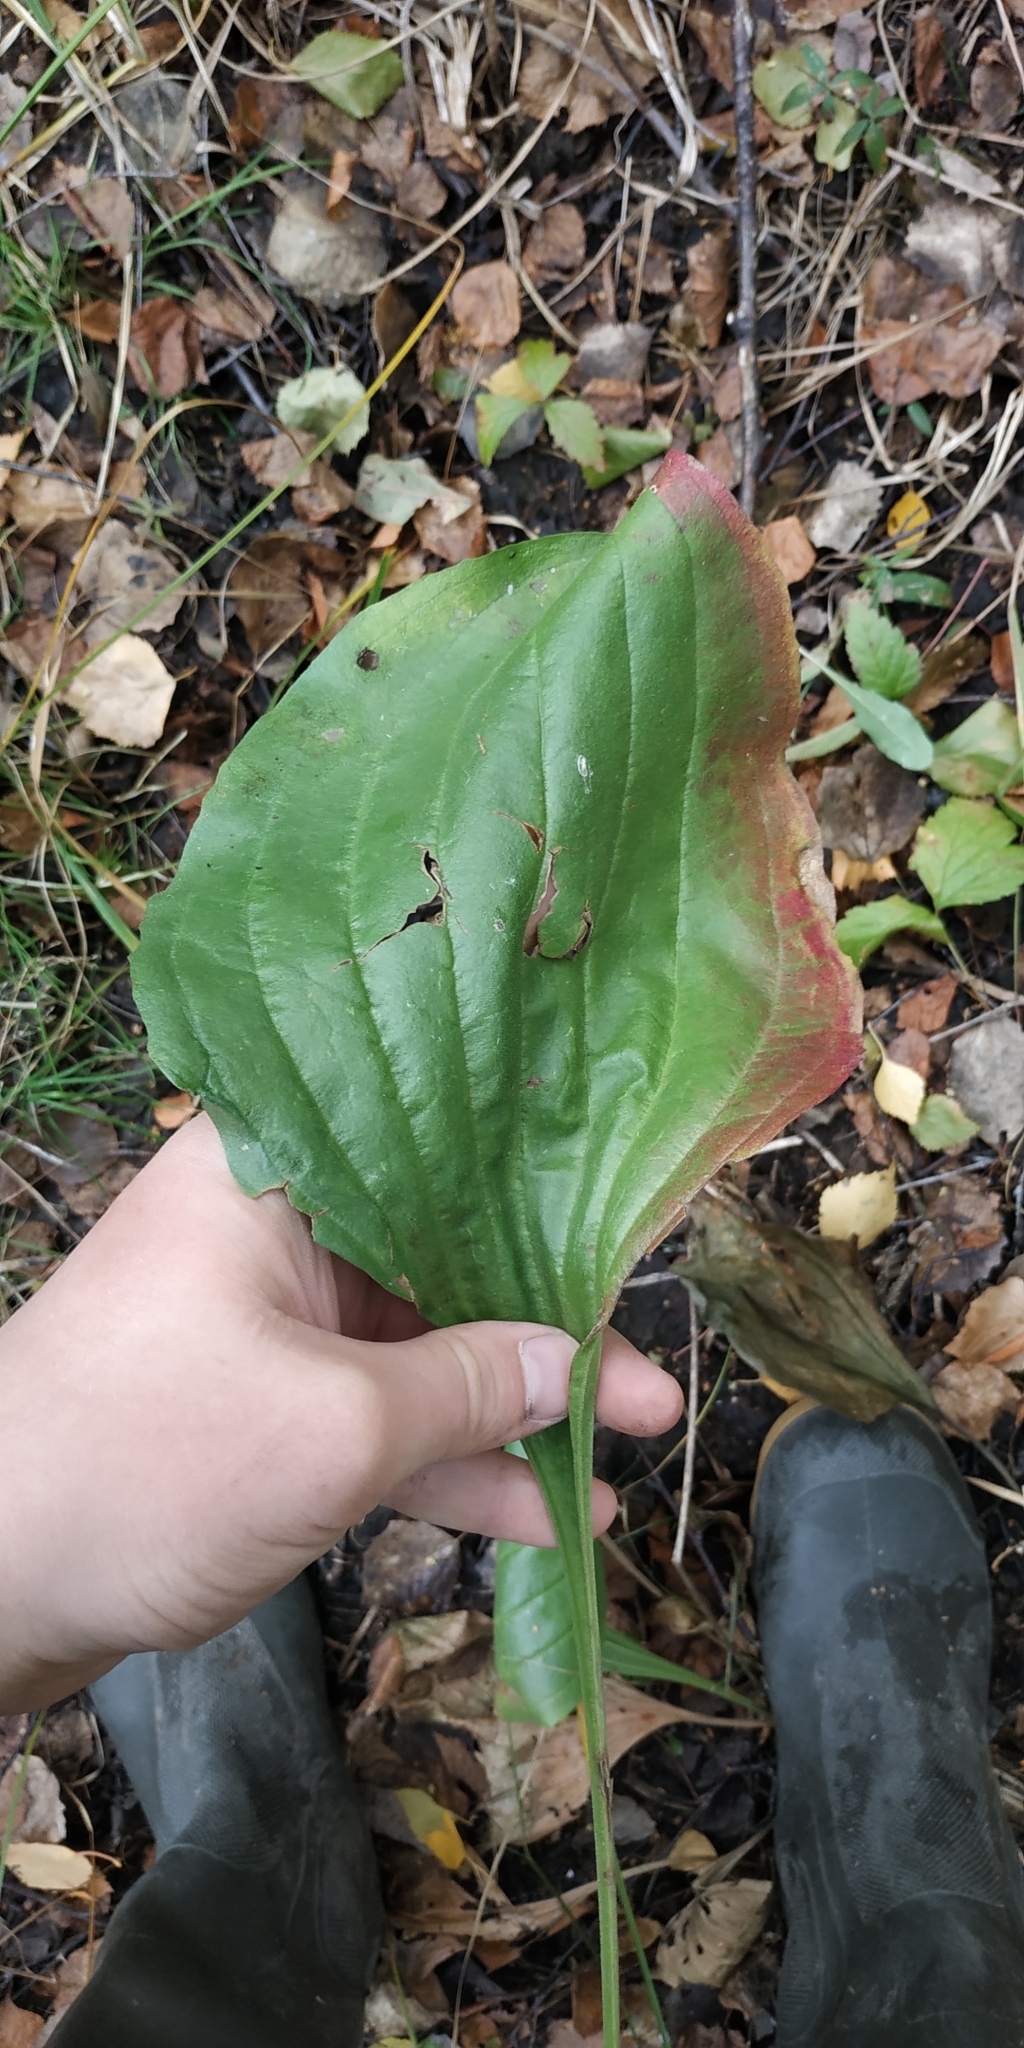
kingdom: Plantae
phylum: Tracheophyta
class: Magnoliopsida
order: Lamiales
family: Plantaginaceae
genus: Plantago
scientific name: Plantago maxima
